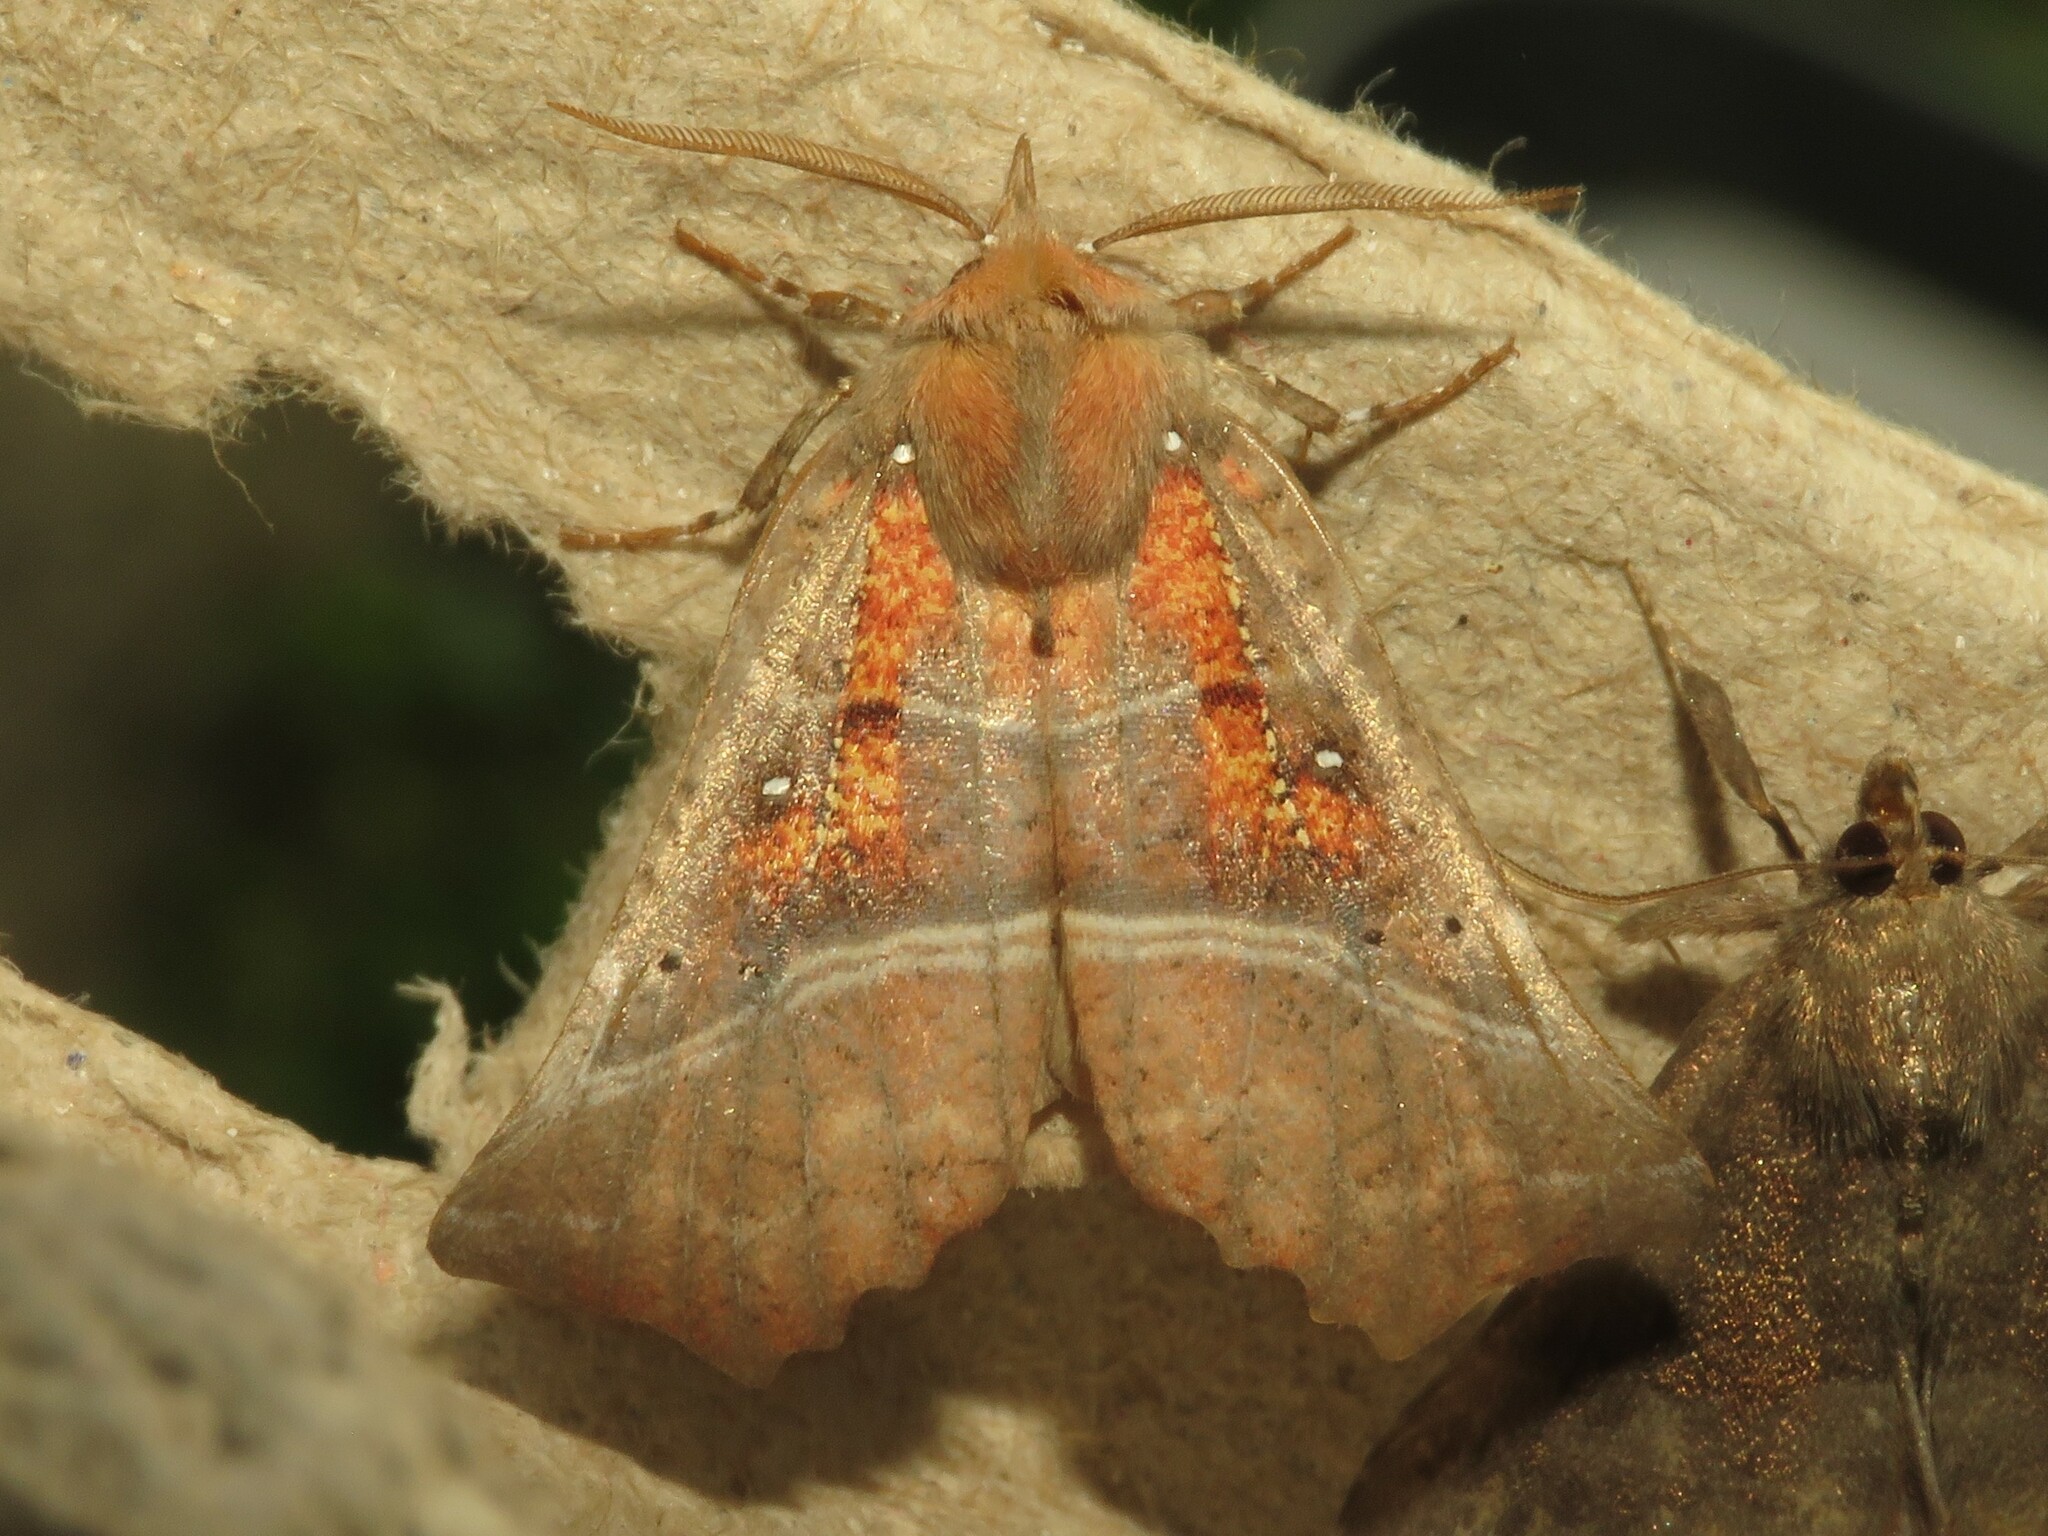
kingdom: Animalia
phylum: Arthropoda
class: Insecta
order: Lepidoptera
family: Erebidae
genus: Scoliopteryx
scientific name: Scoliopteryx libatrix
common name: Herald
